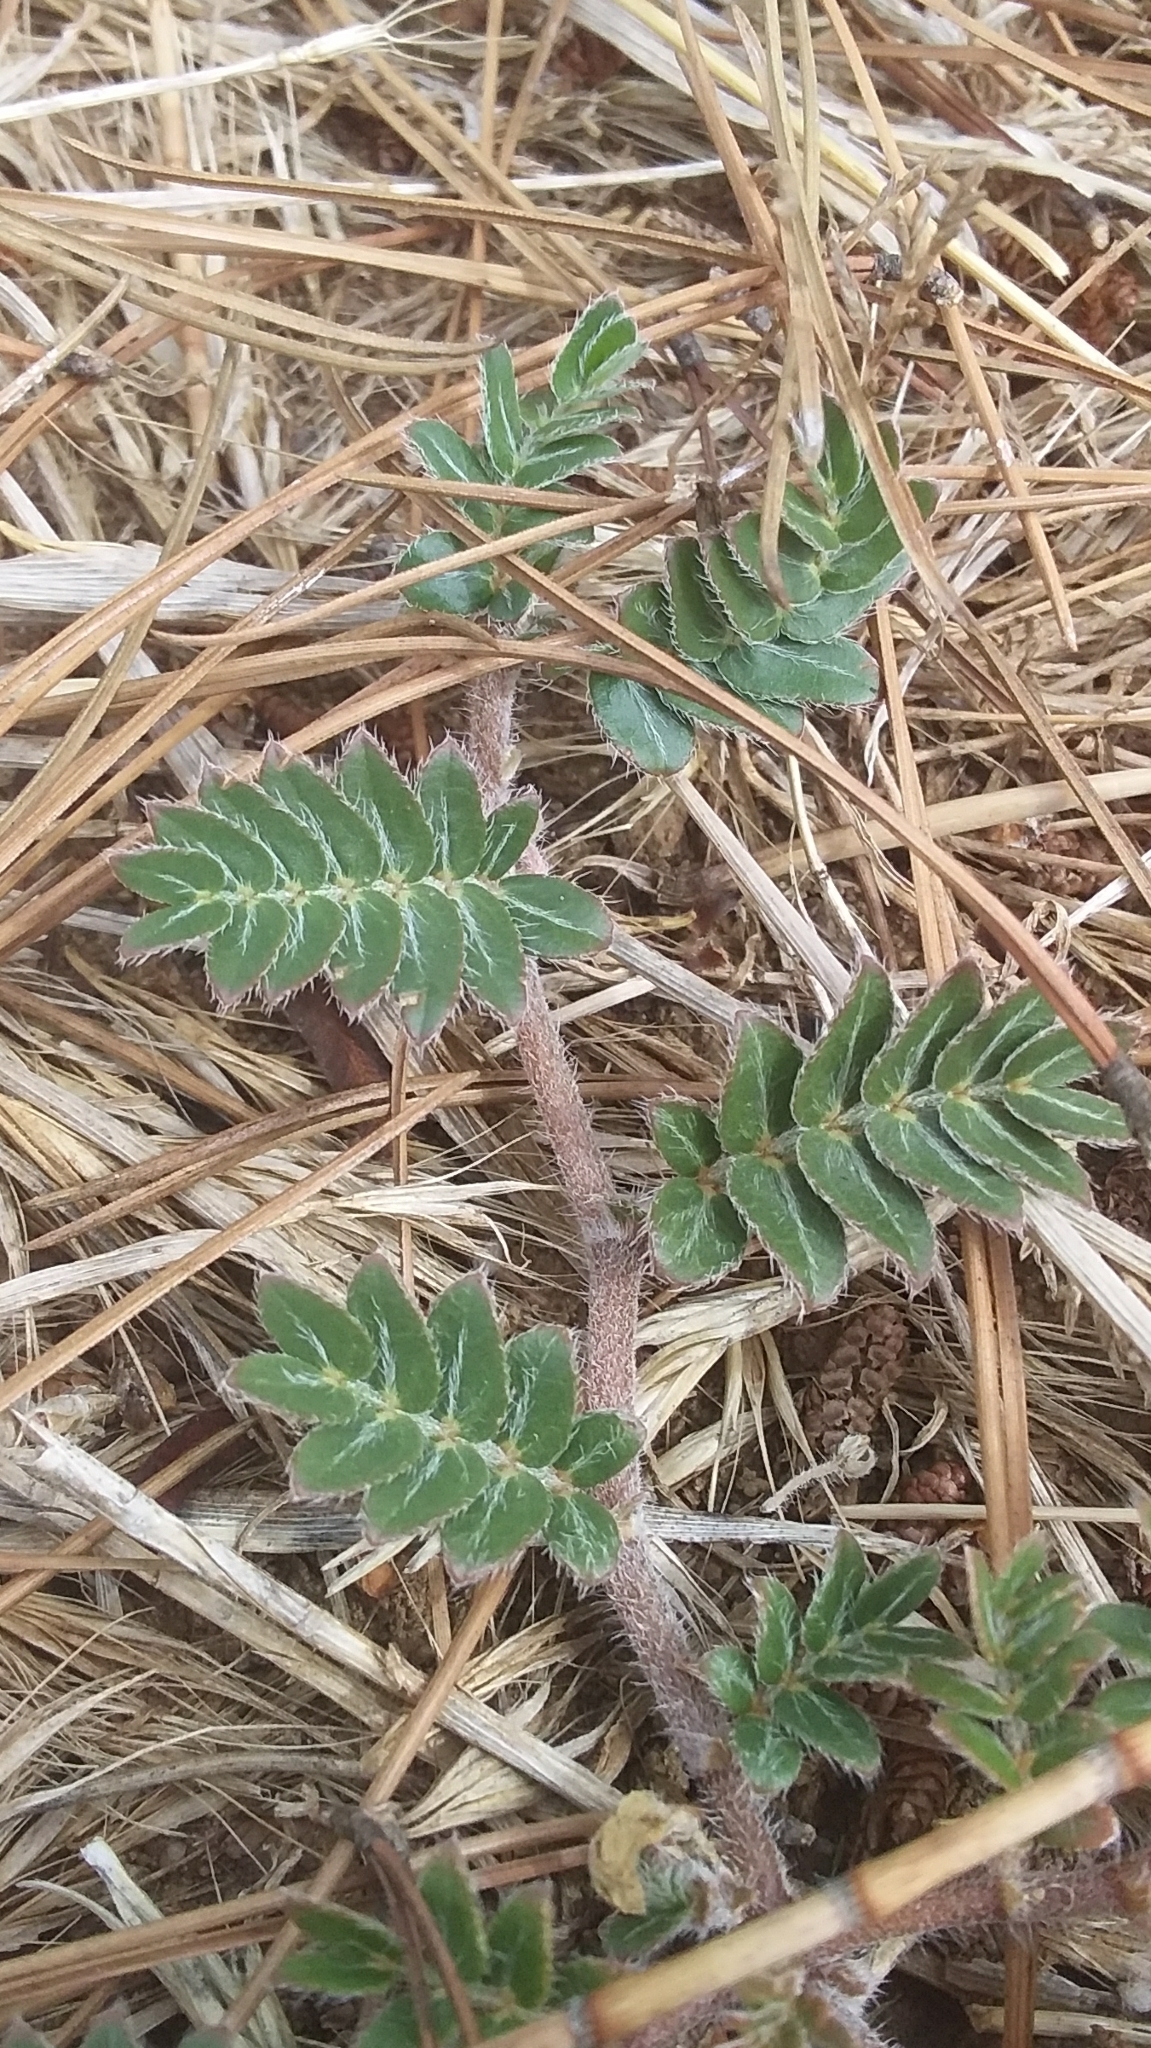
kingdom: Plantae
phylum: Tracheophyta
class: Magnoliopsida
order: Zygophyllales
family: Zygophyllaceae
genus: Tribulus
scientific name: Tribulus terrestris
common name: Puncturevine
